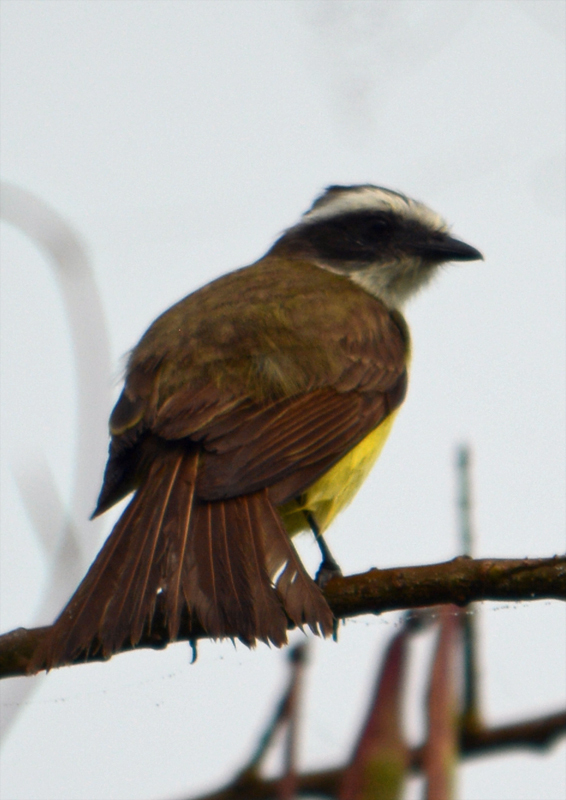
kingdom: Animalia
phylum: Chordata
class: Aves
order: Passeriformes
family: Tyrannidae
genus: Myiozetetes
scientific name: Myiozetetes similis
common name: Social flycatcher
